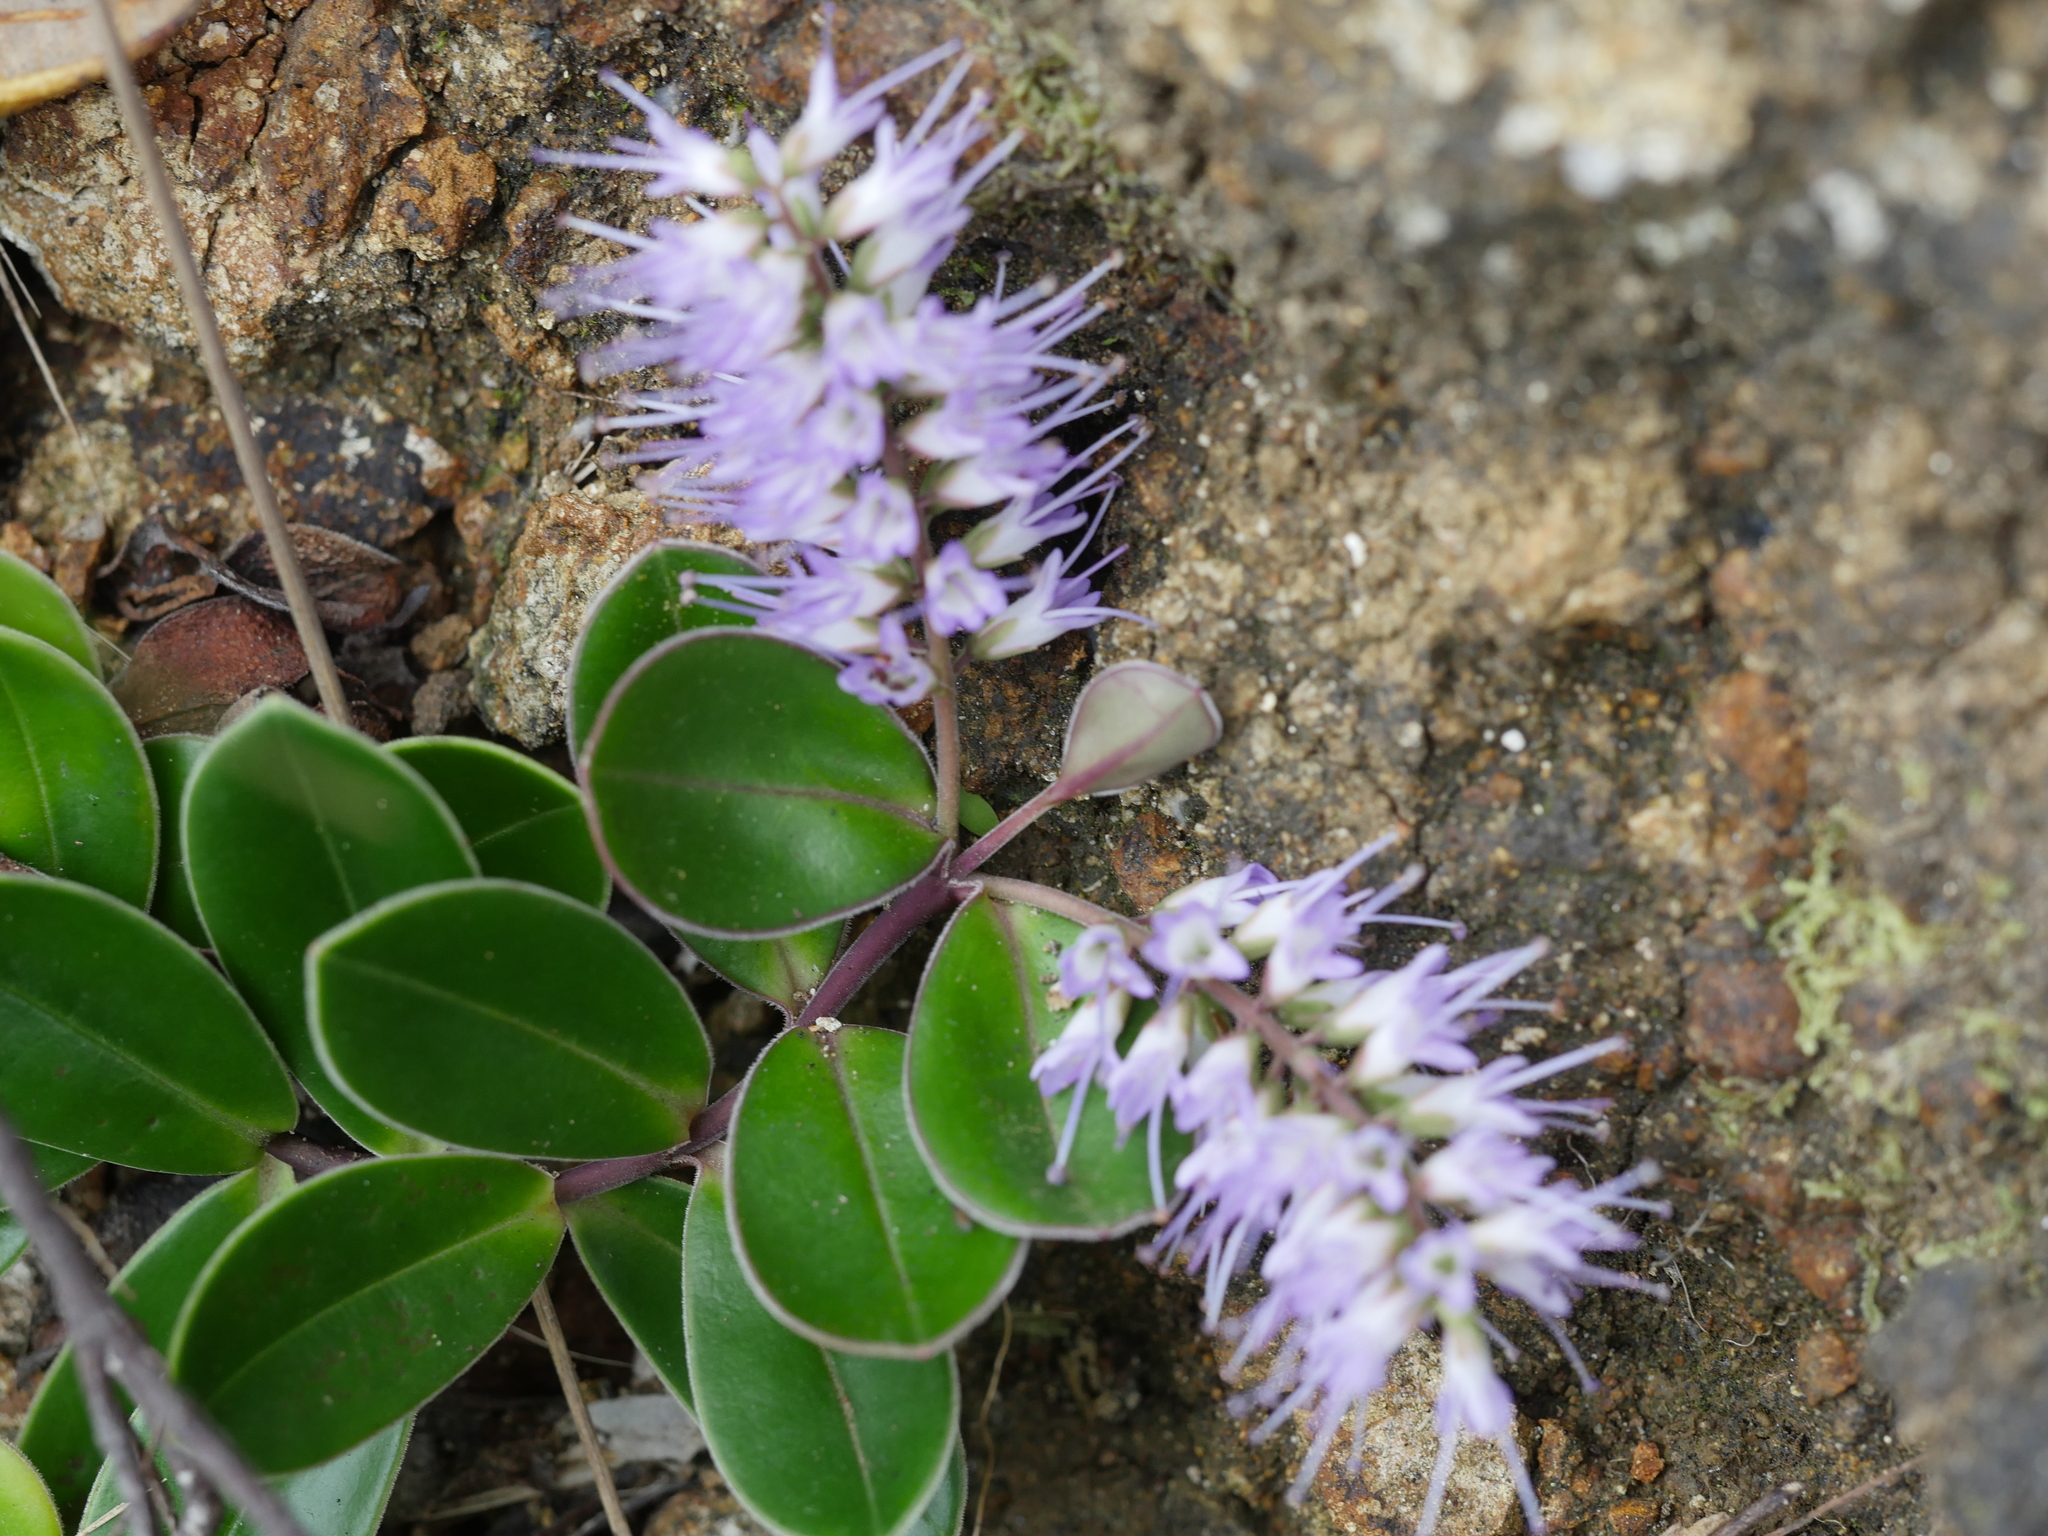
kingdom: Plantae
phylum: Tracheophyta
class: Magnoliopsida
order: Lamiales
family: Plantaginaceae
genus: Veronica
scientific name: Veronica obtusata
